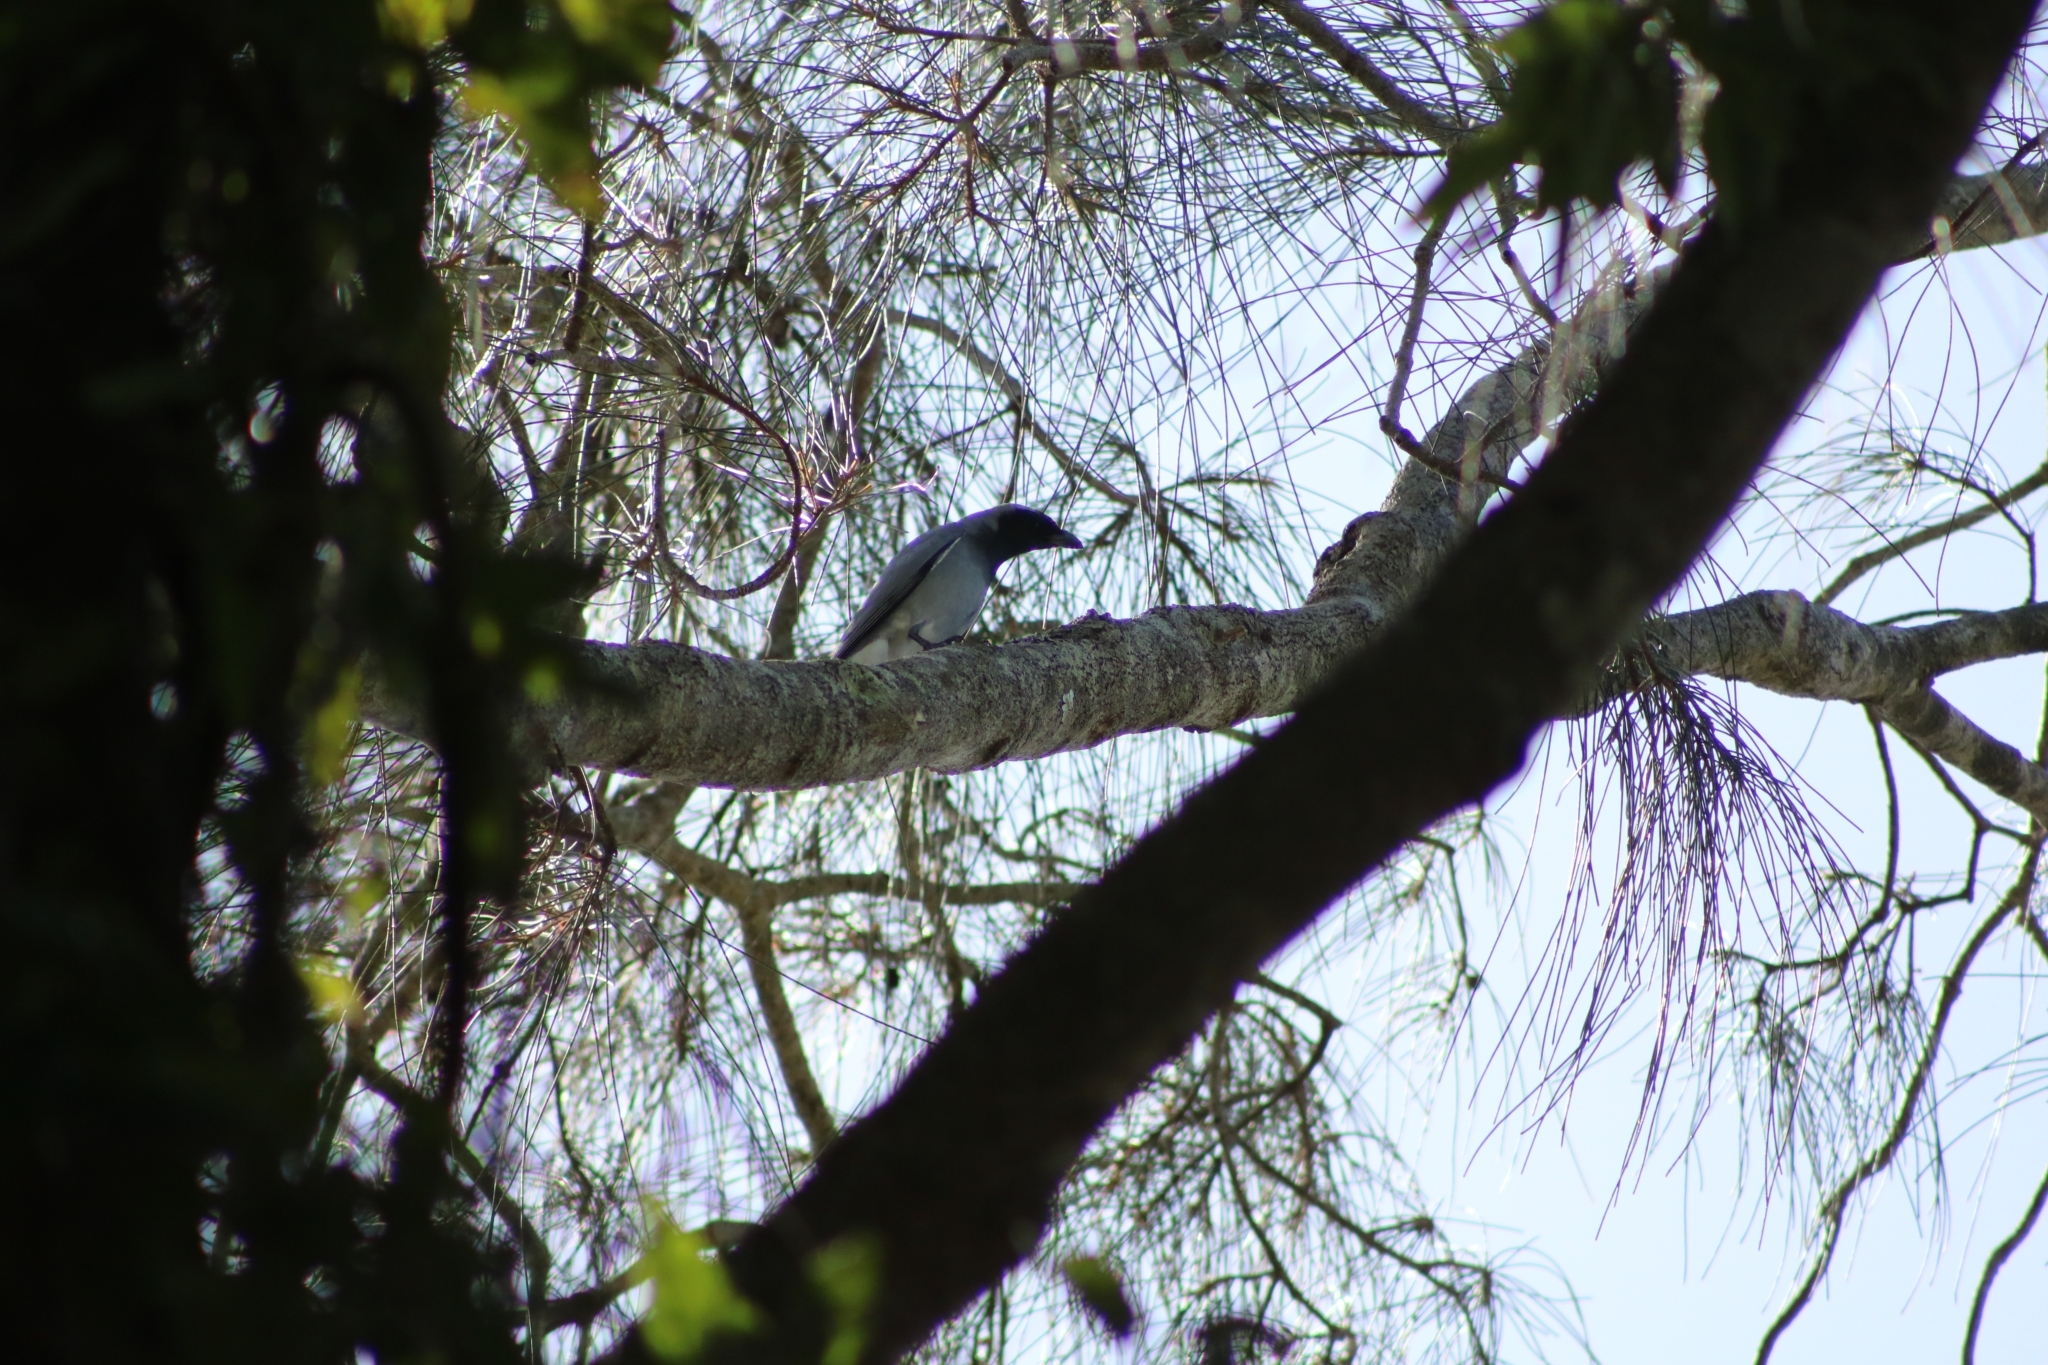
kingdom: Animalia
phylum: Chordata
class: Aves
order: Passeriformes
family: Campephagidae
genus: Coracina
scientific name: Coracina novaehollandiae
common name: Black-faced cuckooshrike
